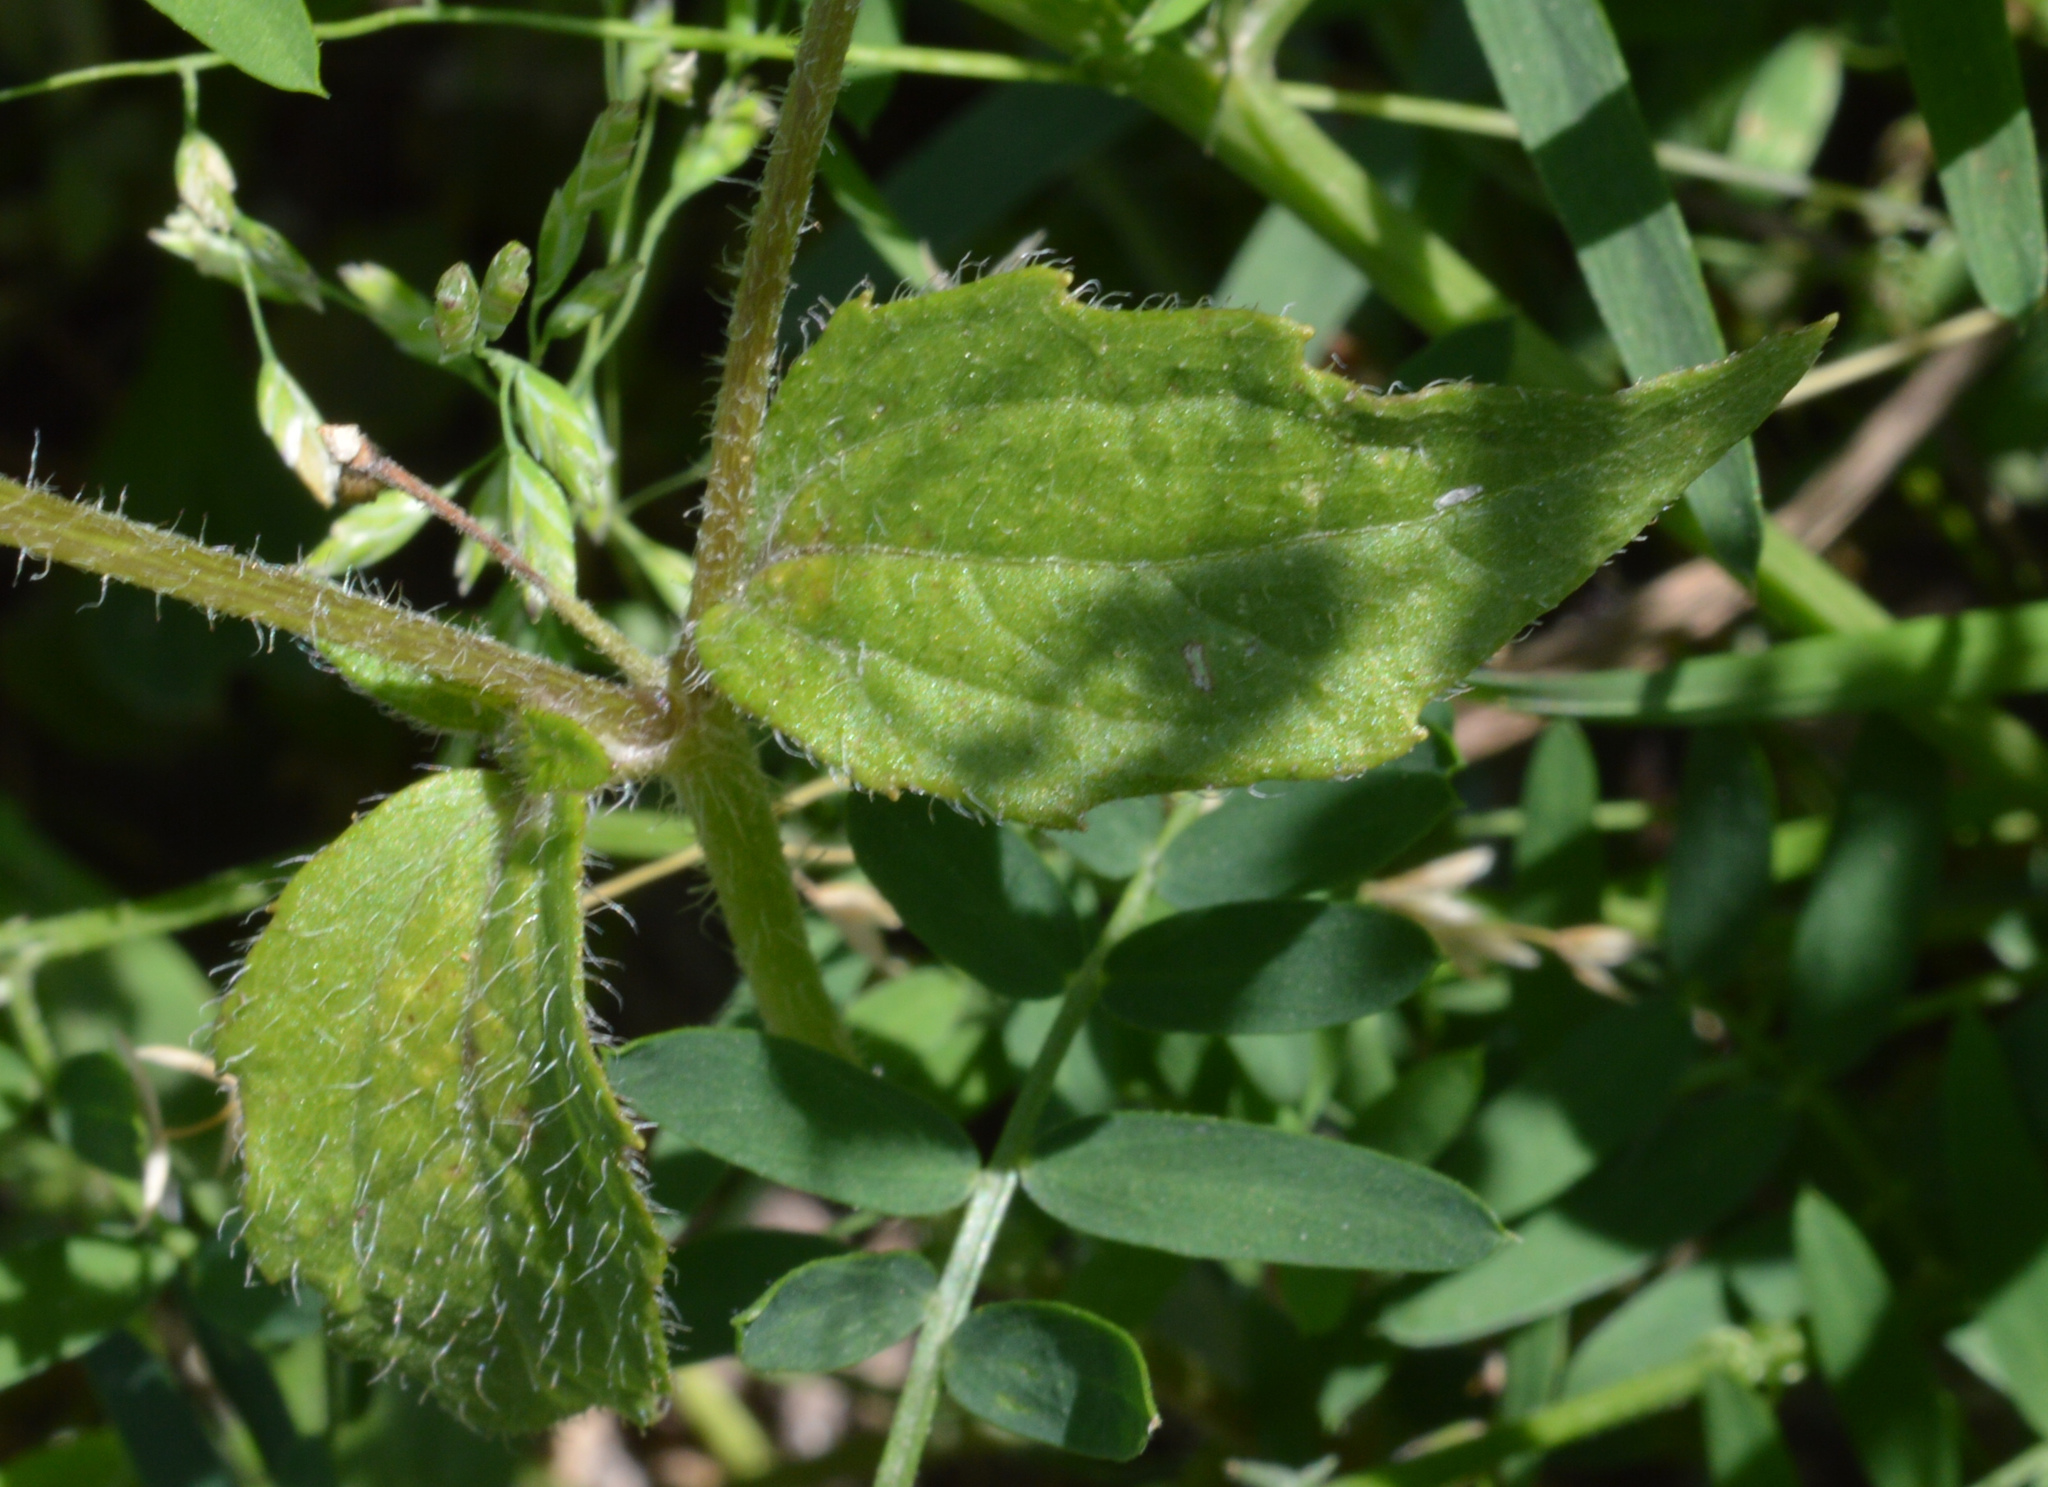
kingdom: Plantae
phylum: Tracheophyta
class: Magnoliopsida
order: Asterales
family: Asteraceae
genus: Galinsoga
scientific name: Galinsoga quadriradiata
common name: Shaggy soldier
